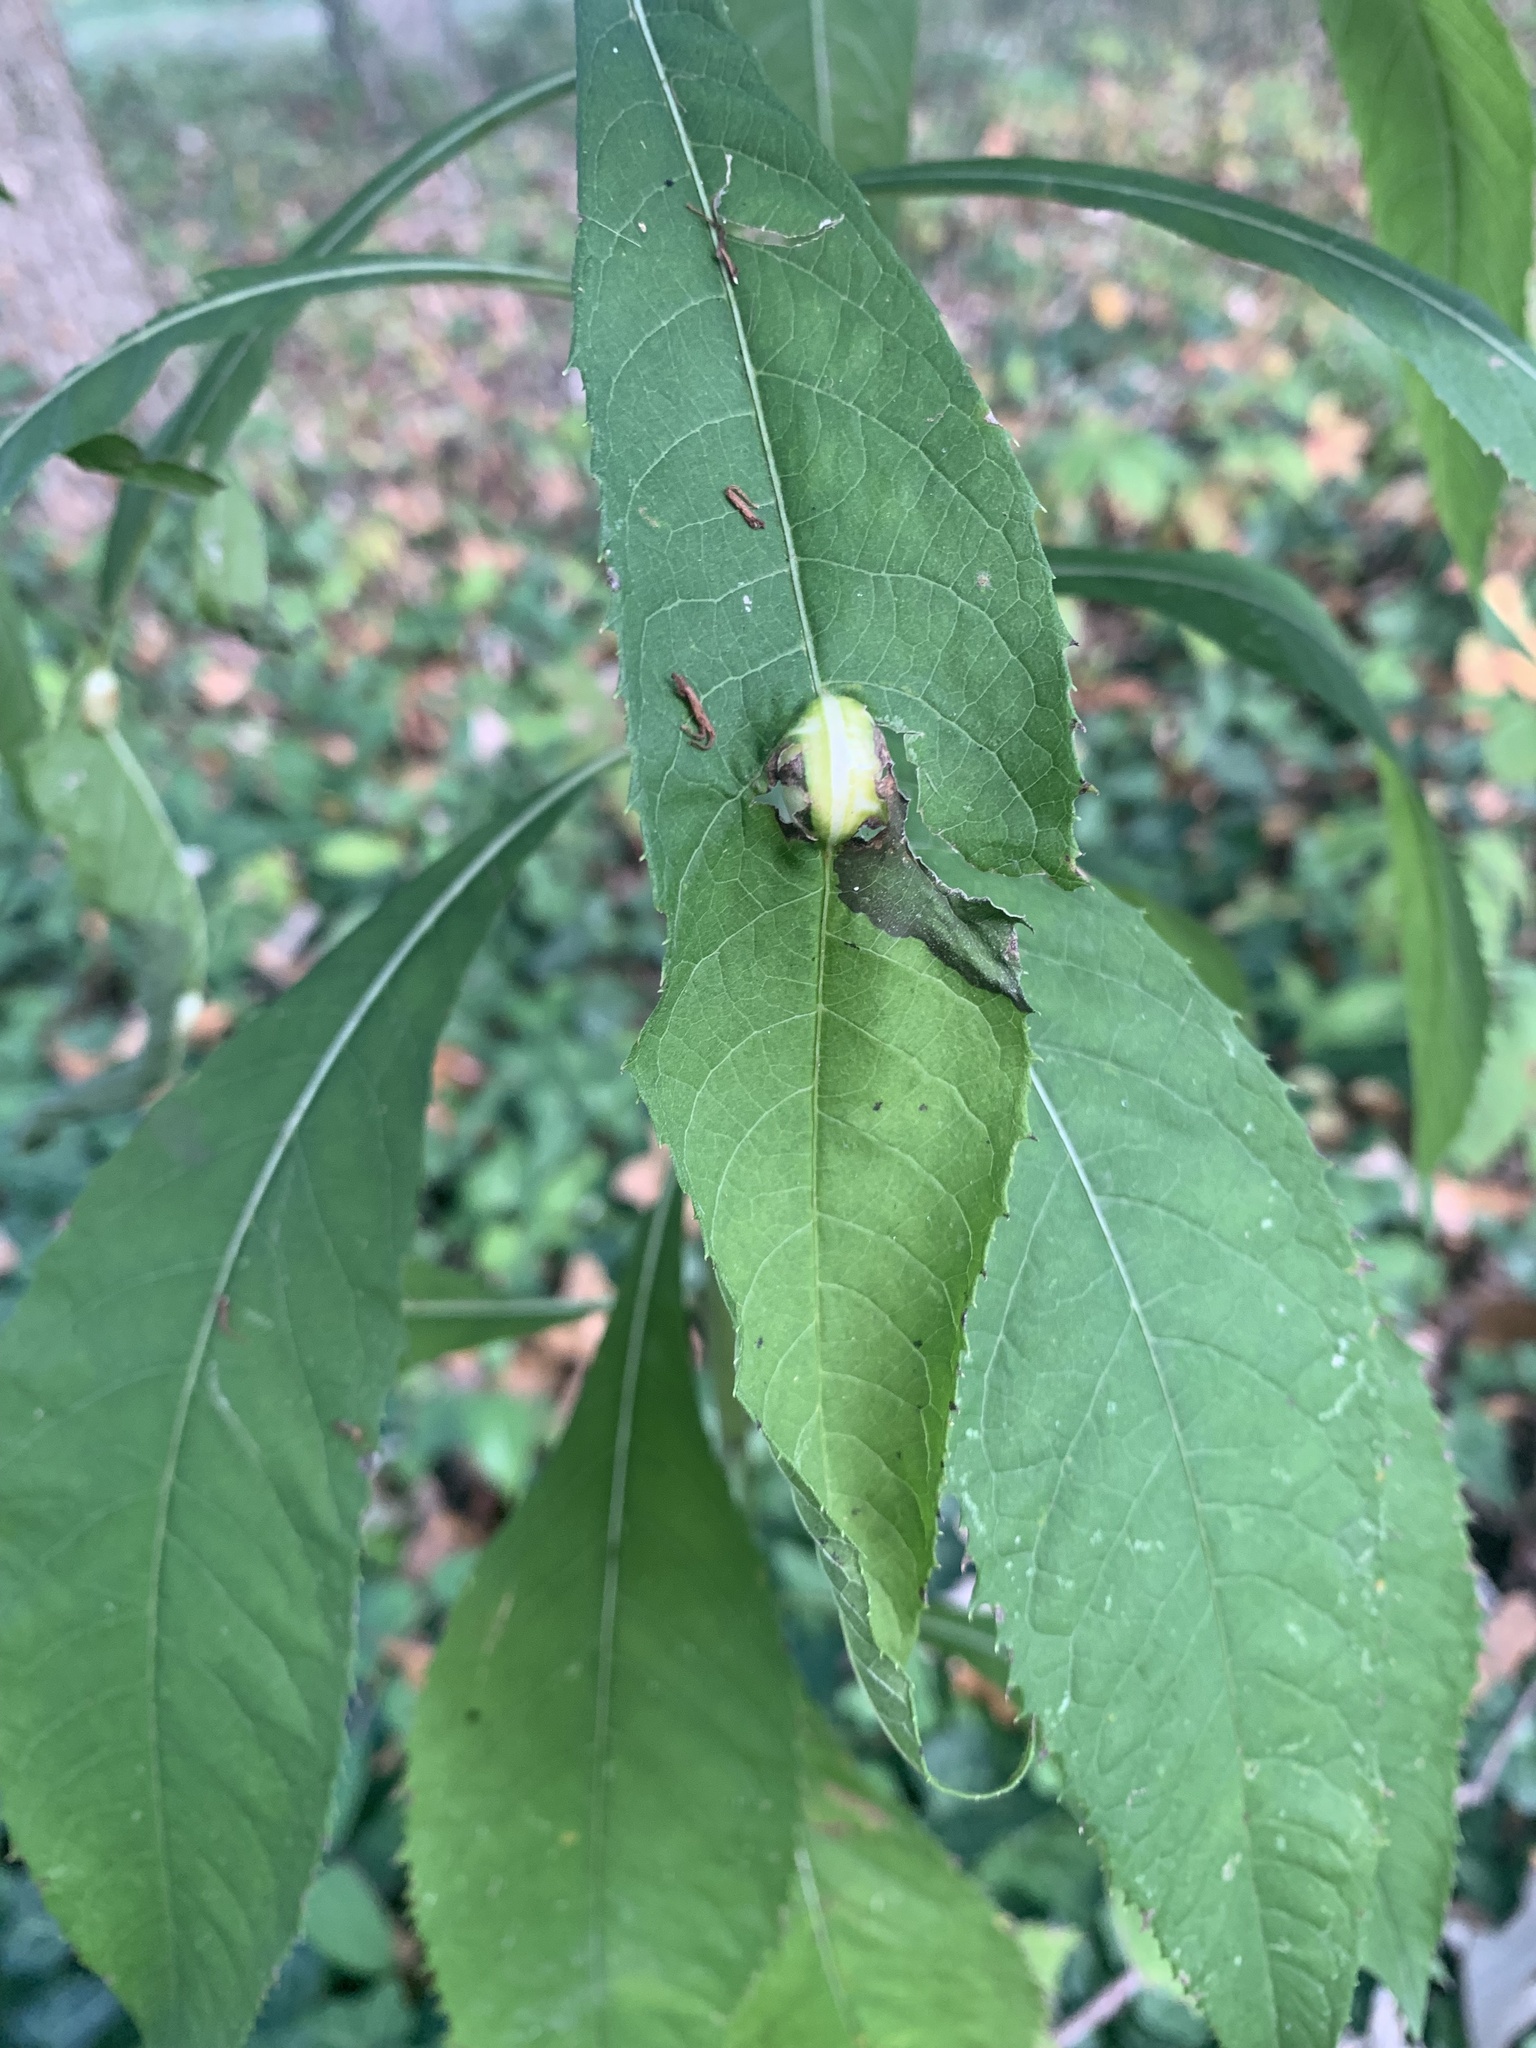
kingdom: Animalia
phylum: Arthropoda
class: Insecta
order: Diptera
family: Cecidomyiidae
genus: Neolasioptera
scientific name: Neolasioptera vernoniae
